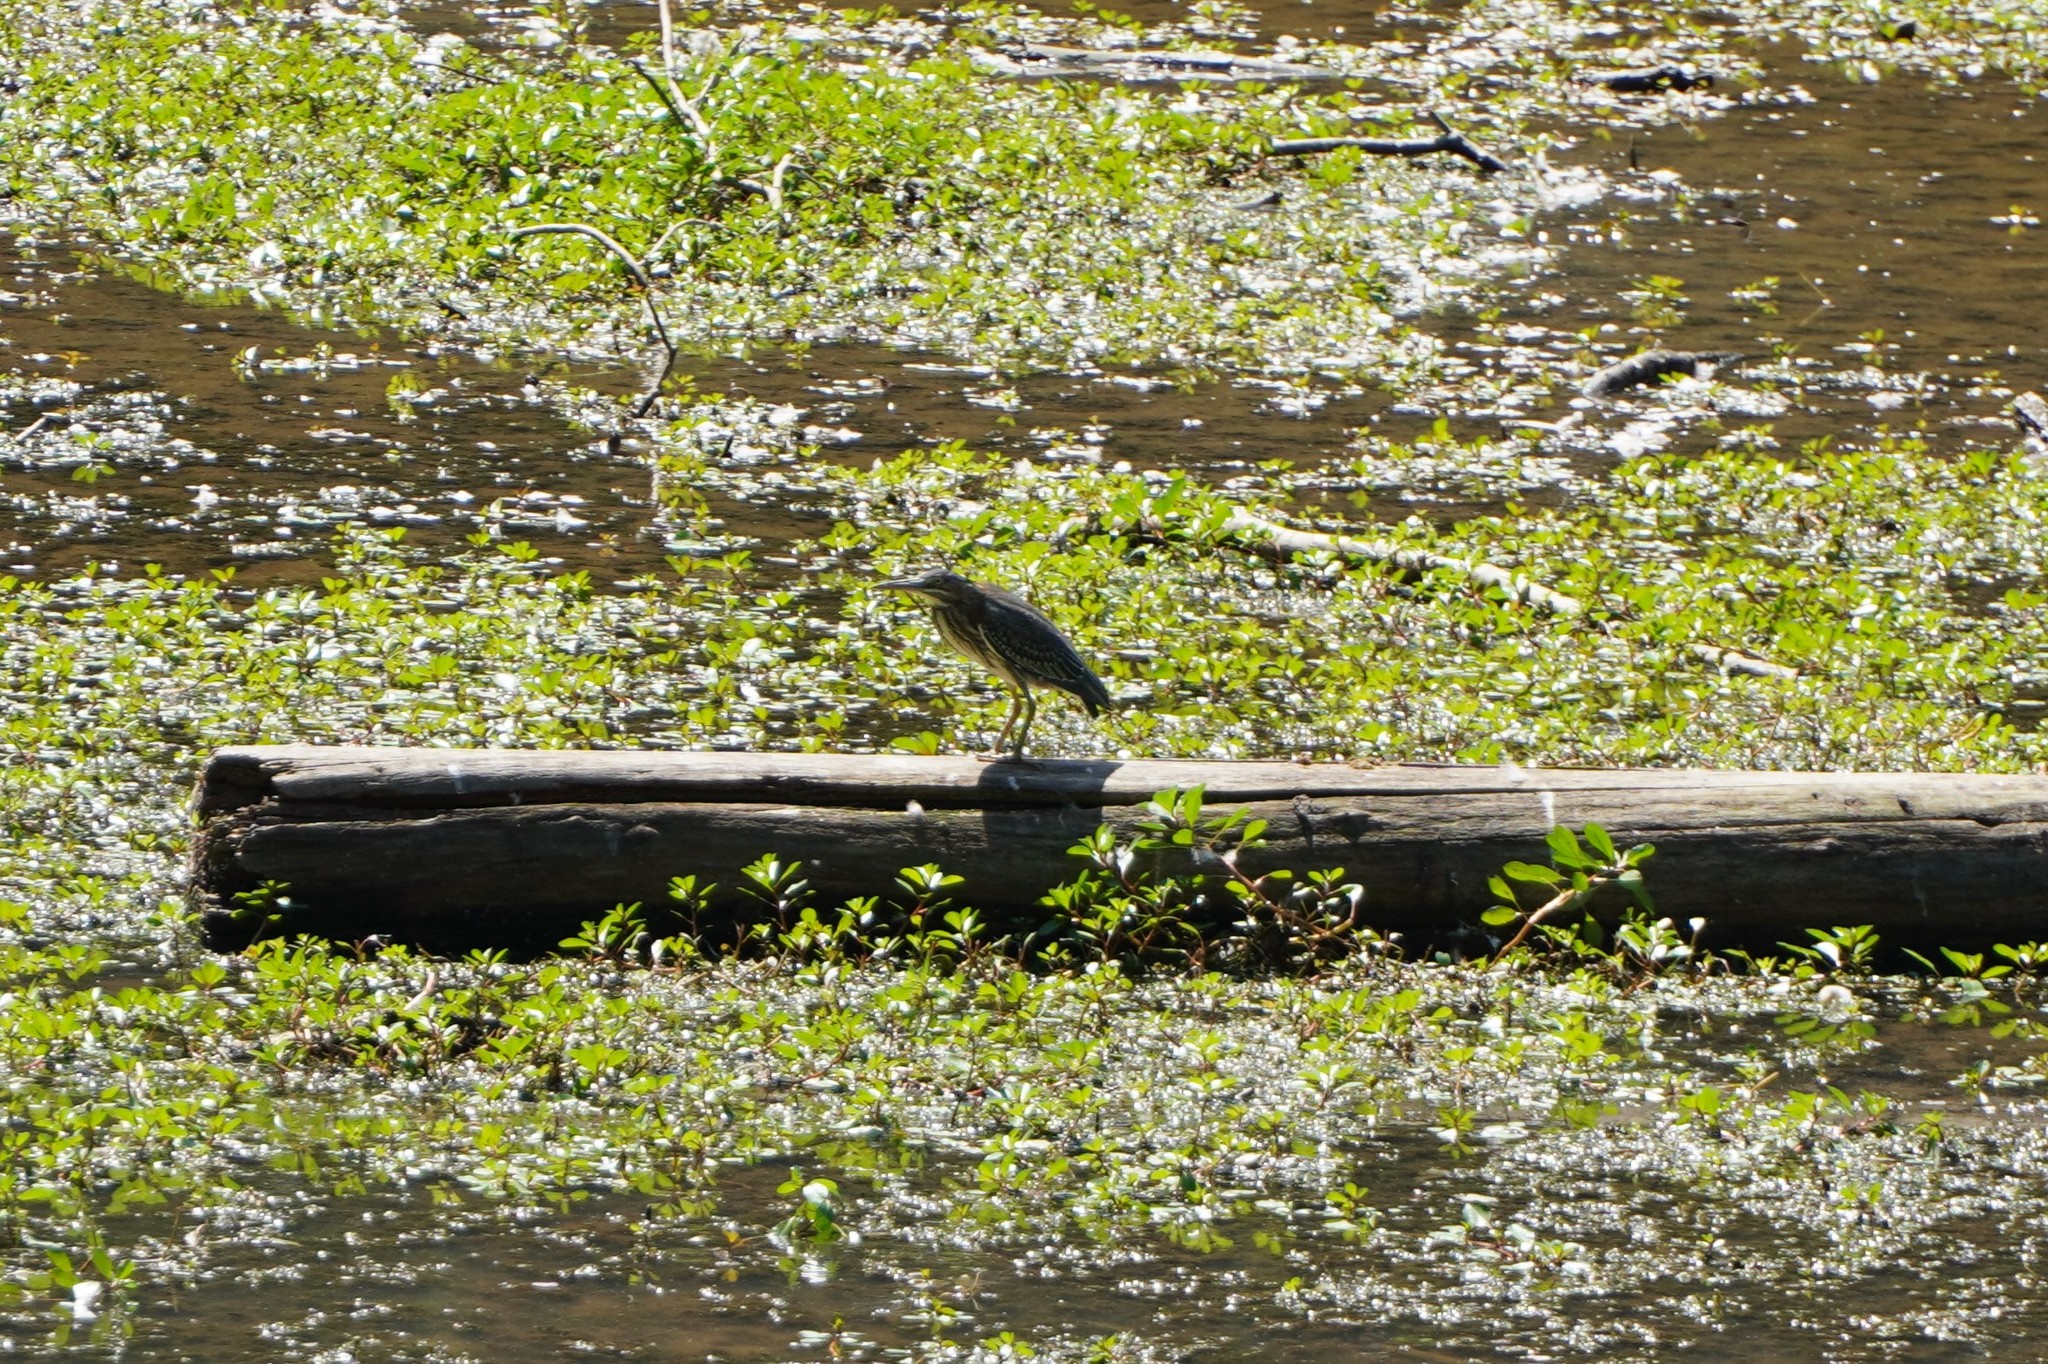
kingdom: Animalia
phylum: Chordata
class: Aves
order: Pelecaniformes
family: Ardeidae
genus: Butorides
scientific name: Butorides virescens
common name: Green heron
